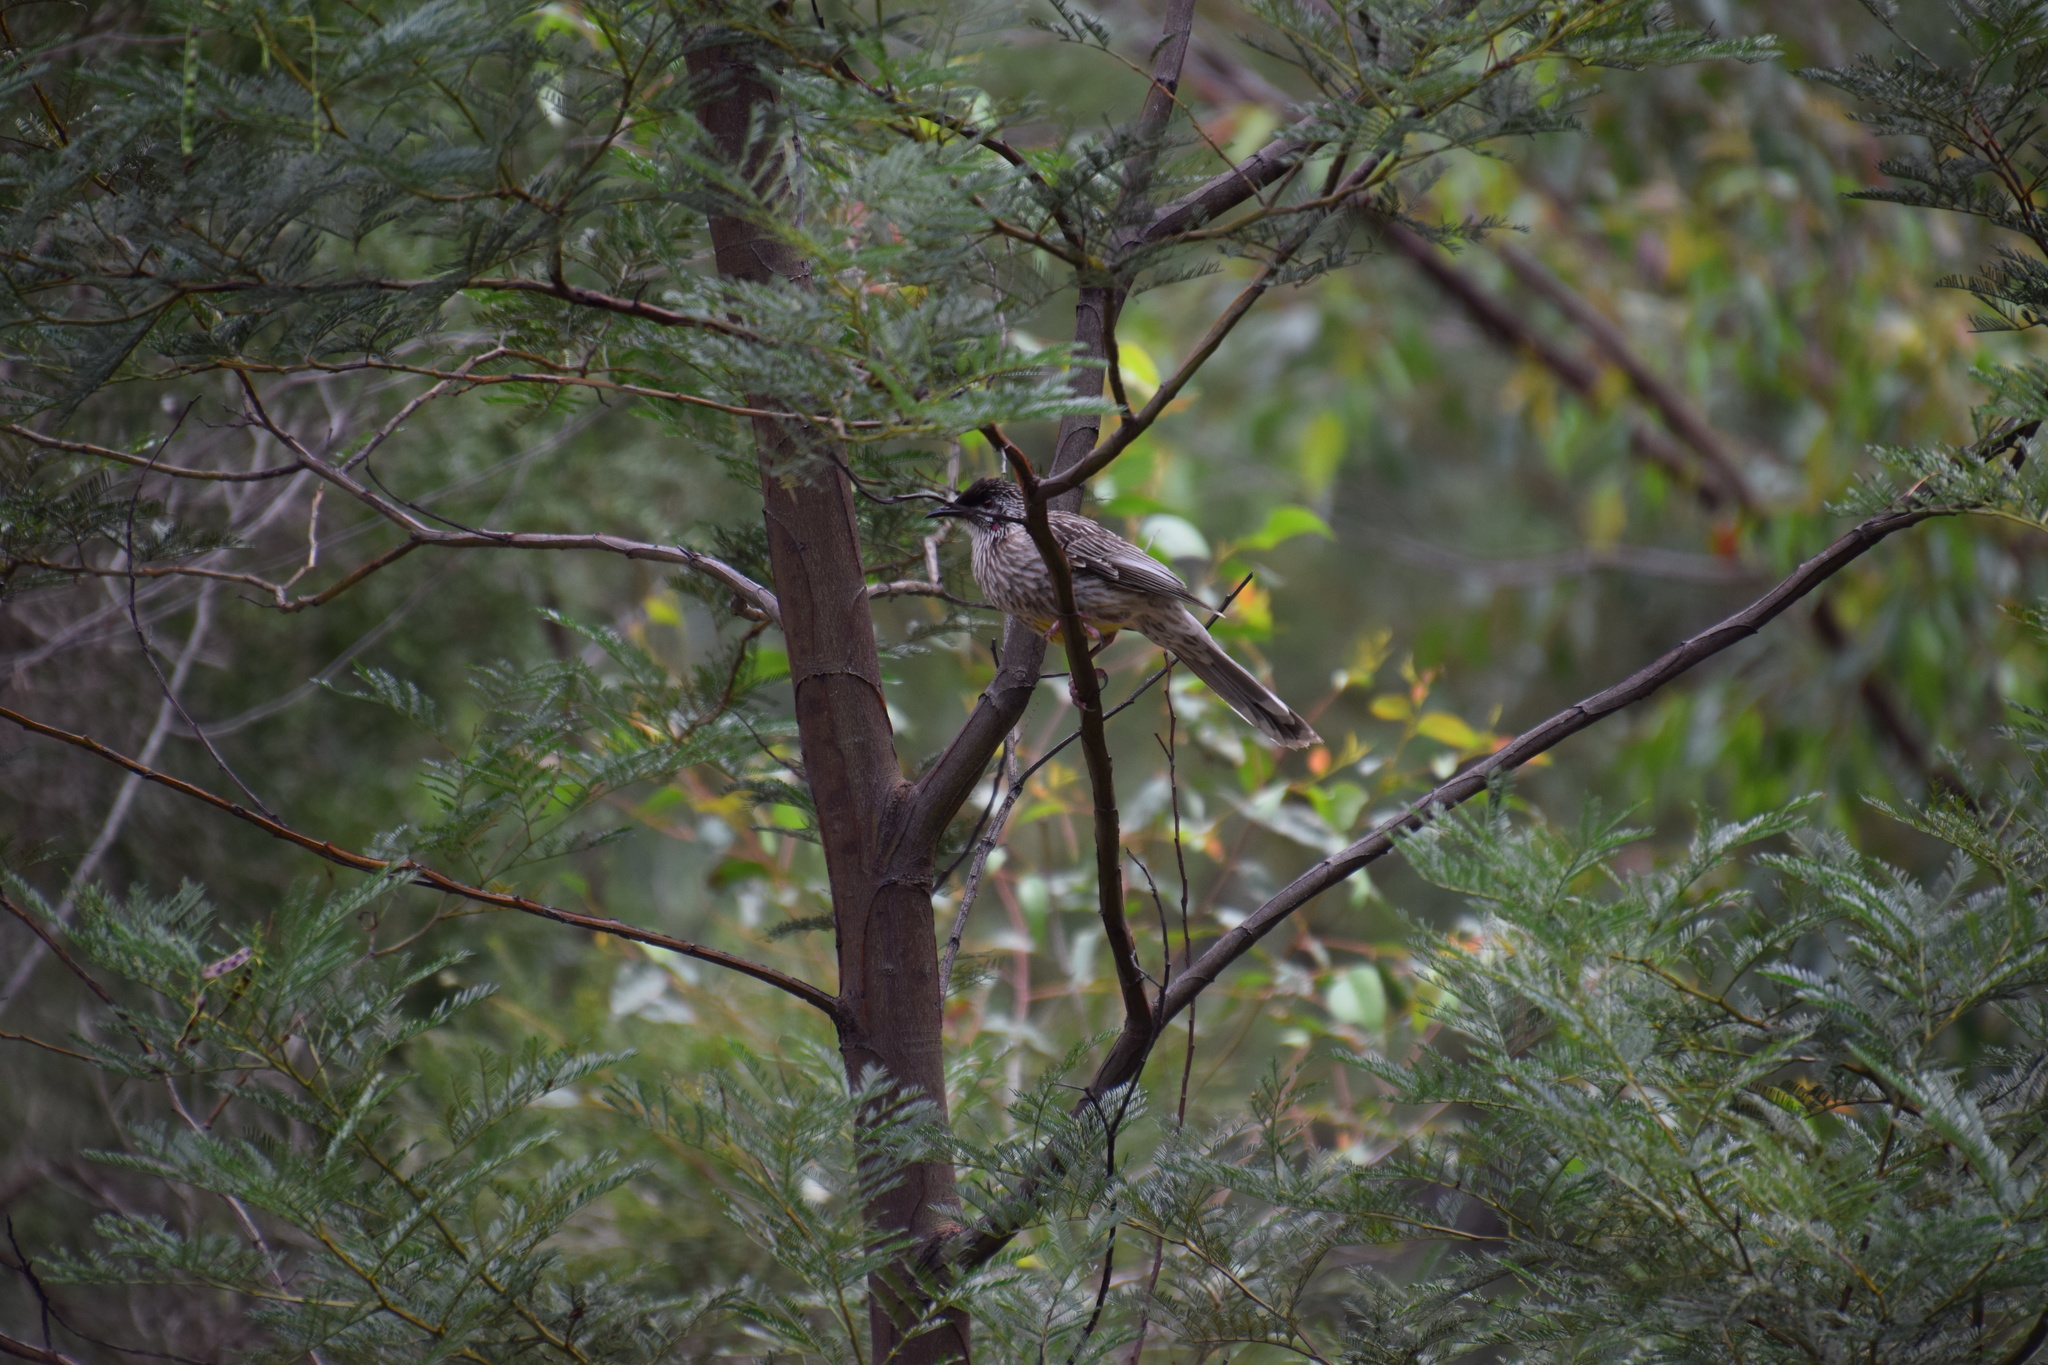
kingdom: Animalia
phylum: Chordata
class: Aves
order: Passeriformes
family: Meliphagidae
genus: Anthochaera
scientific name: Anthochaera carunculata
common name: Red wattlebird
